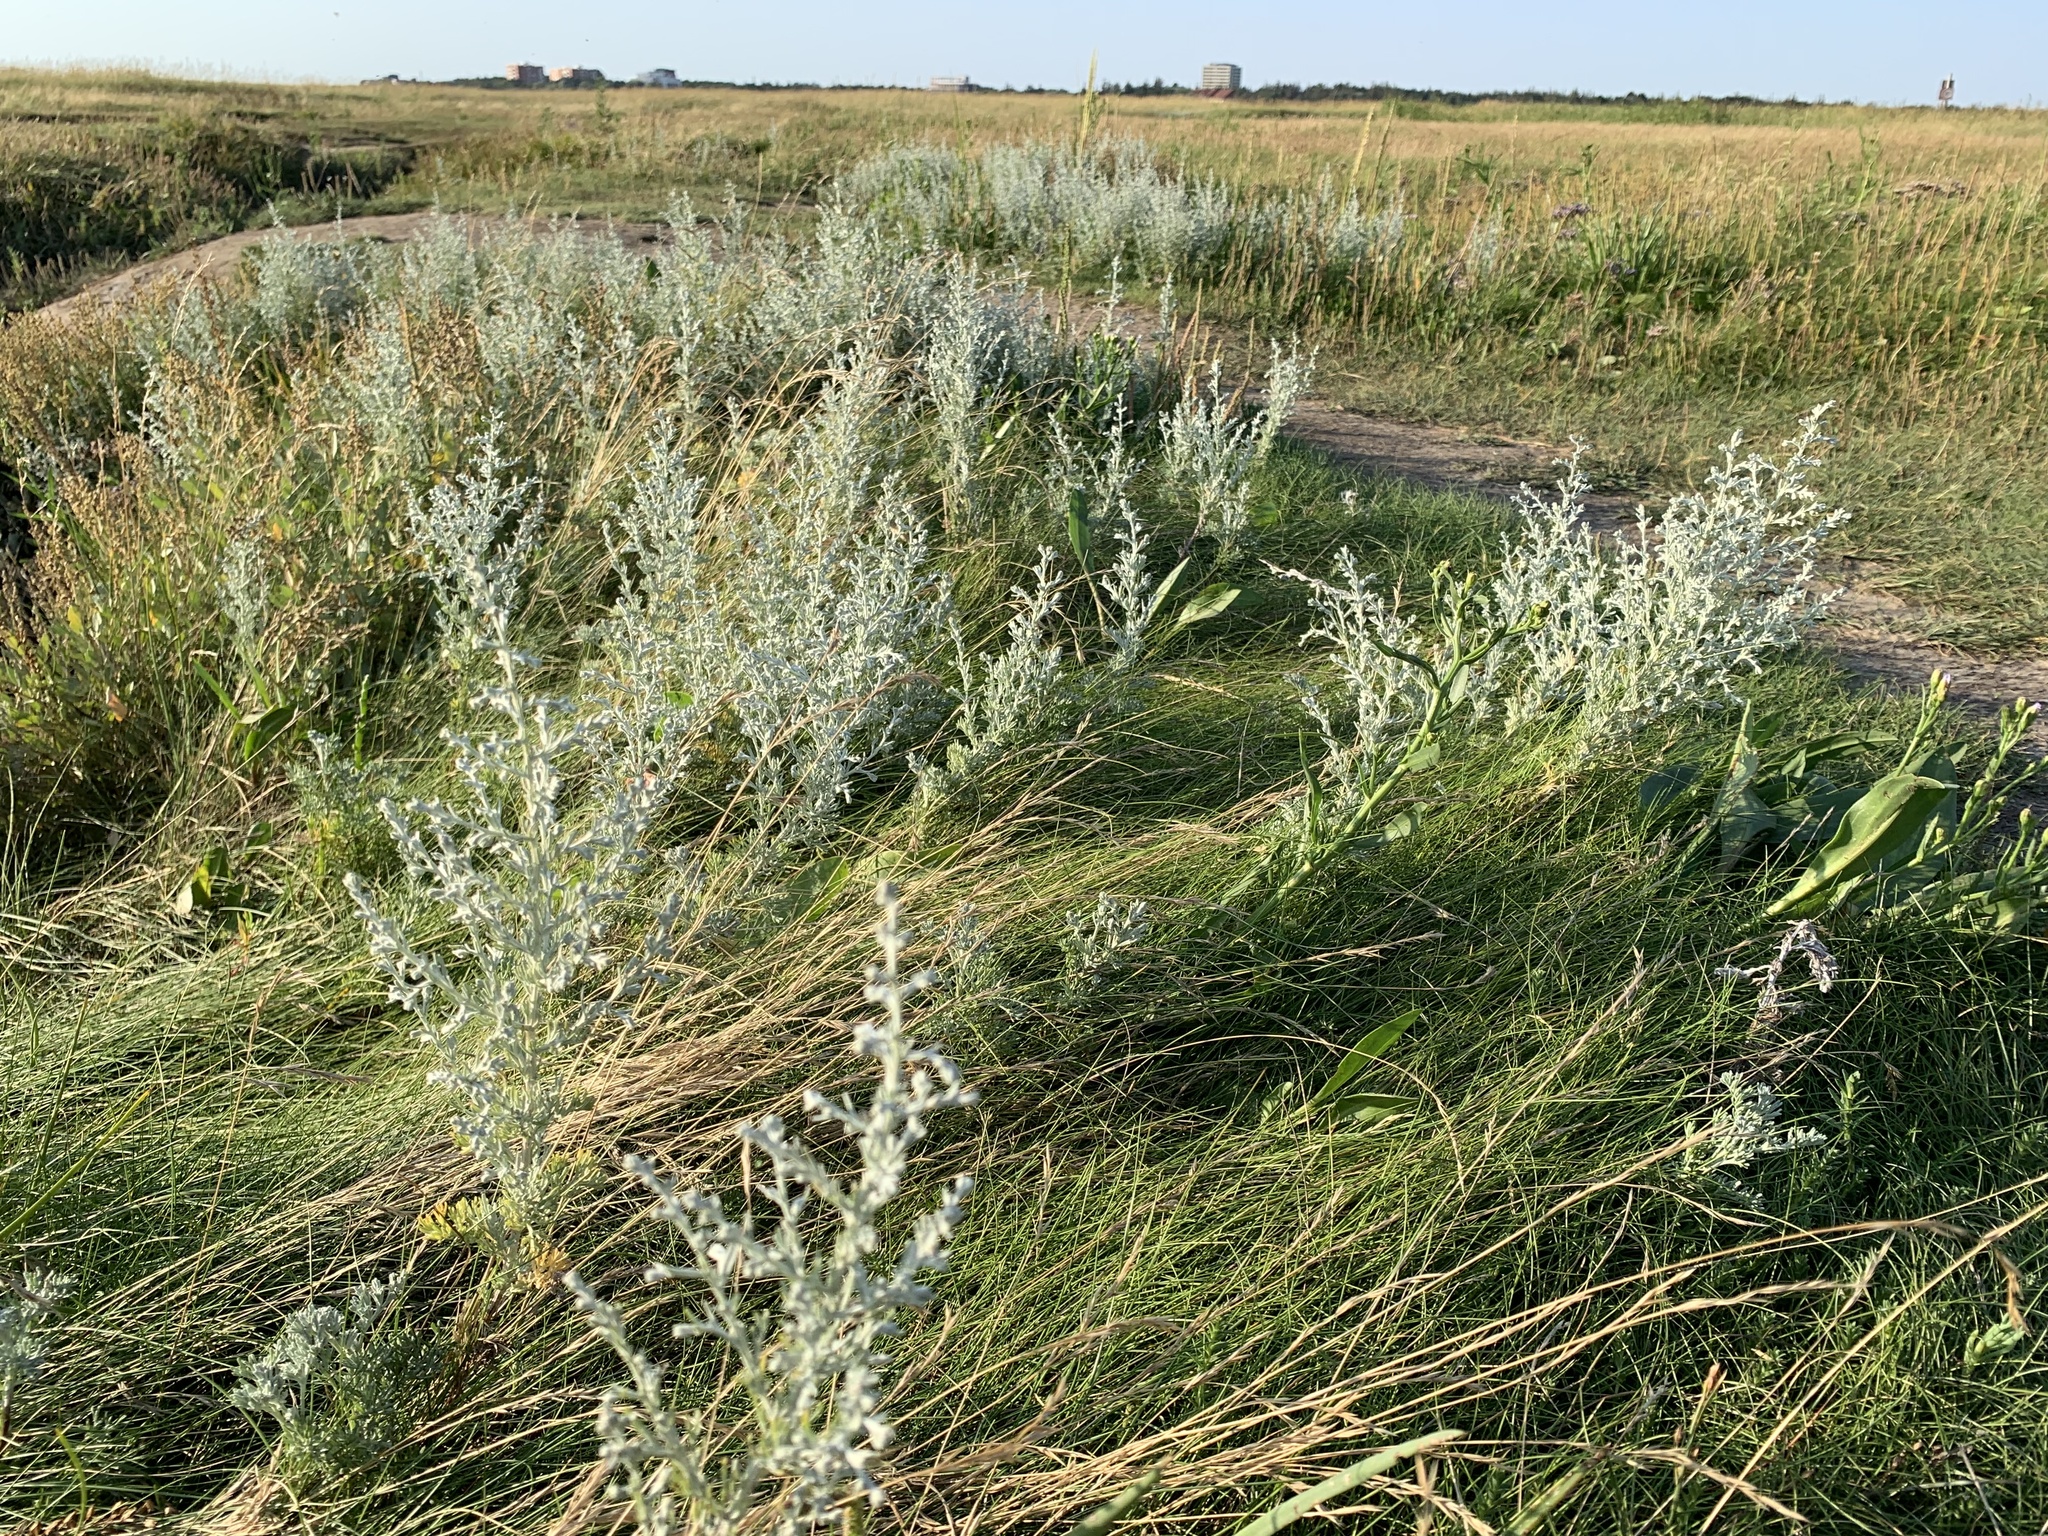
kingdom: Plantae
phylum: Tracheophyta
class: Magnoliopsida
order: Asterales
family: Asteraceae
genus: Artemisia
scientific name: Artemisia maritima
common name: Wormseed
